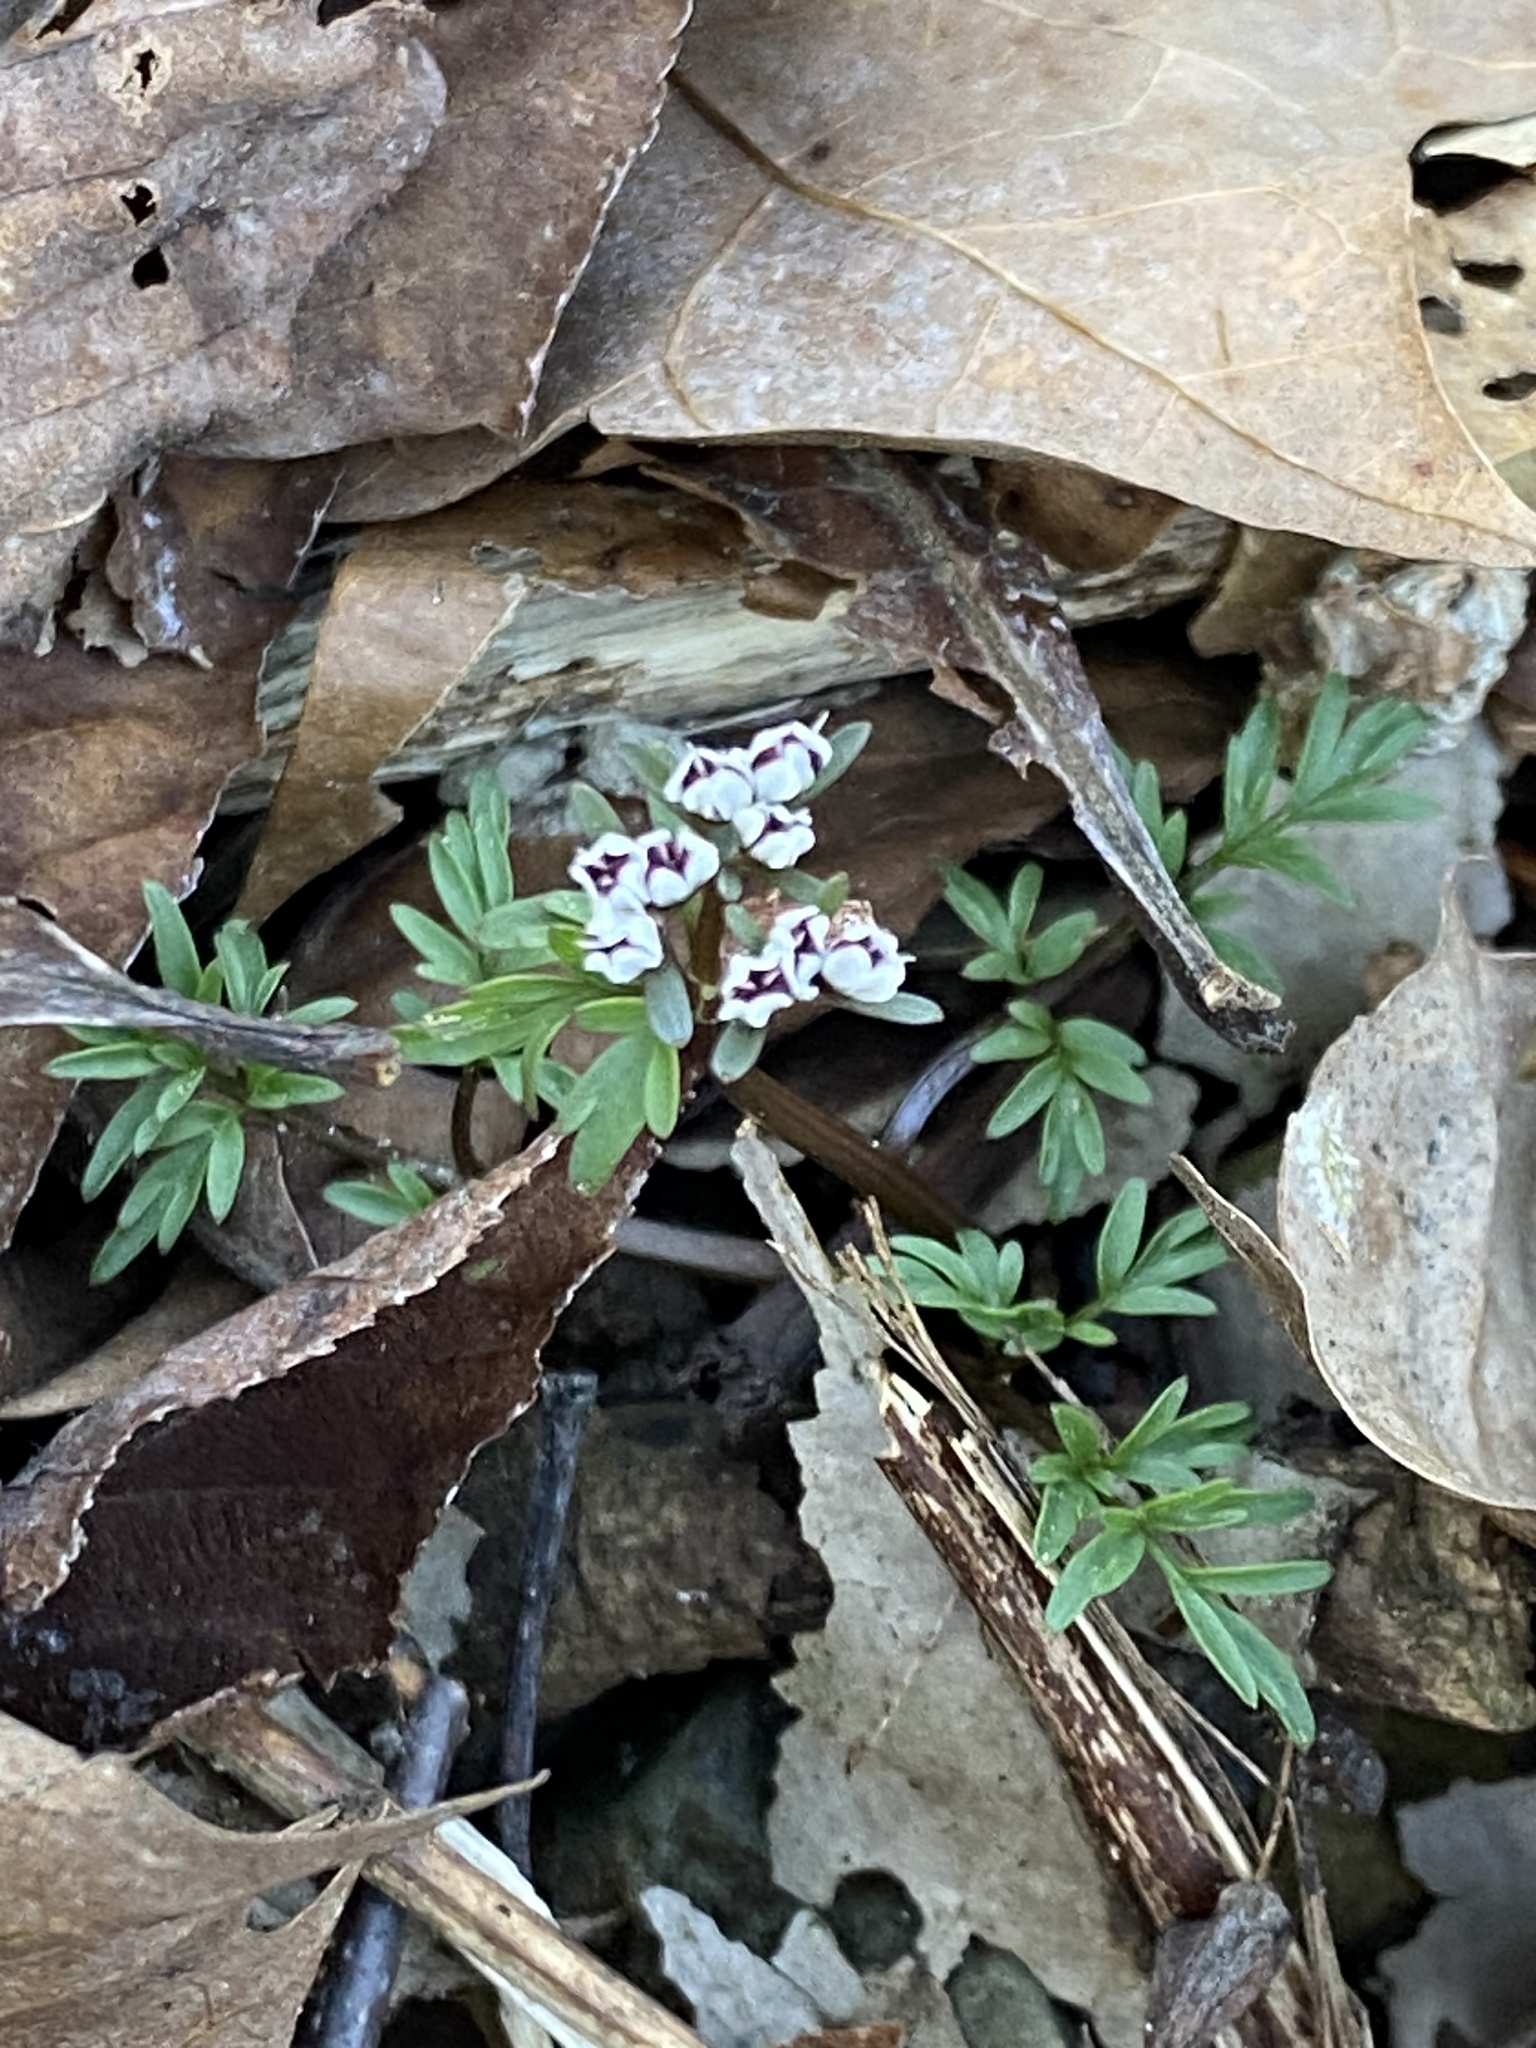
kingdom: Plantae
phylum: Tracheophyta
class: Magnoliopsida
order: Apiales
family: Apiaceae
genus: Erigenia
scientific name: Erigenia bulbosa
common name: Pepper-and-salt
